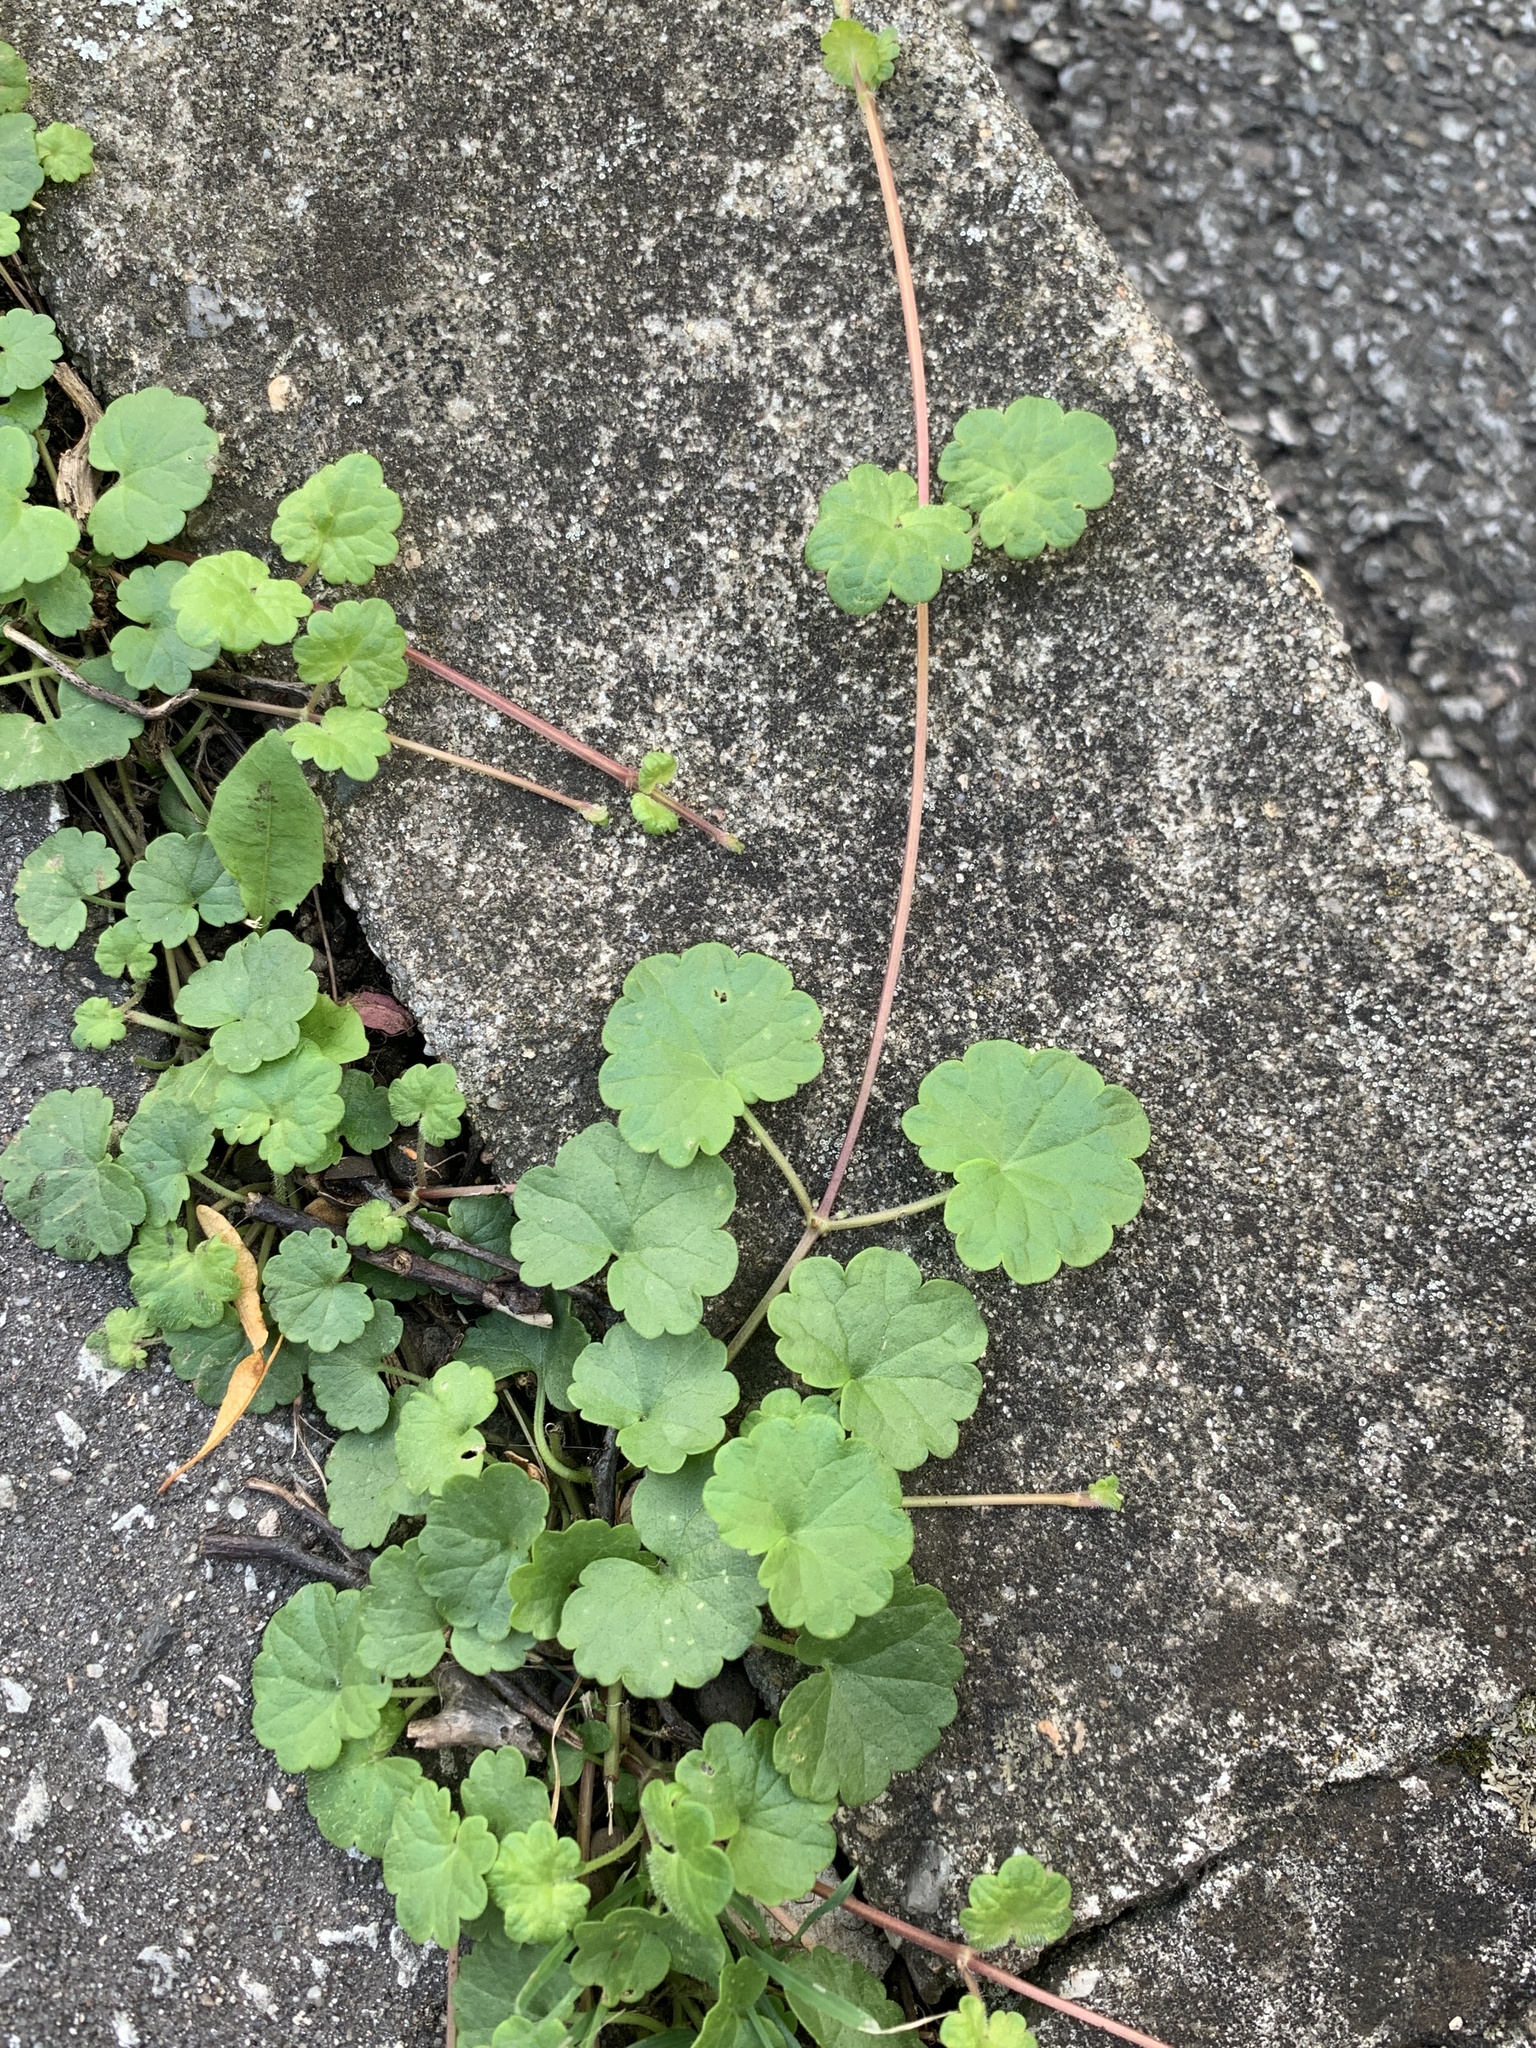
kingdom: Plantae
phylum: Tracheophyta
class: Magnoliopsida
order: Lamiales
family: Lamiaceae
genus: Glechoma
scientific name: Glechoma hederacea
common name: Ground ivy
